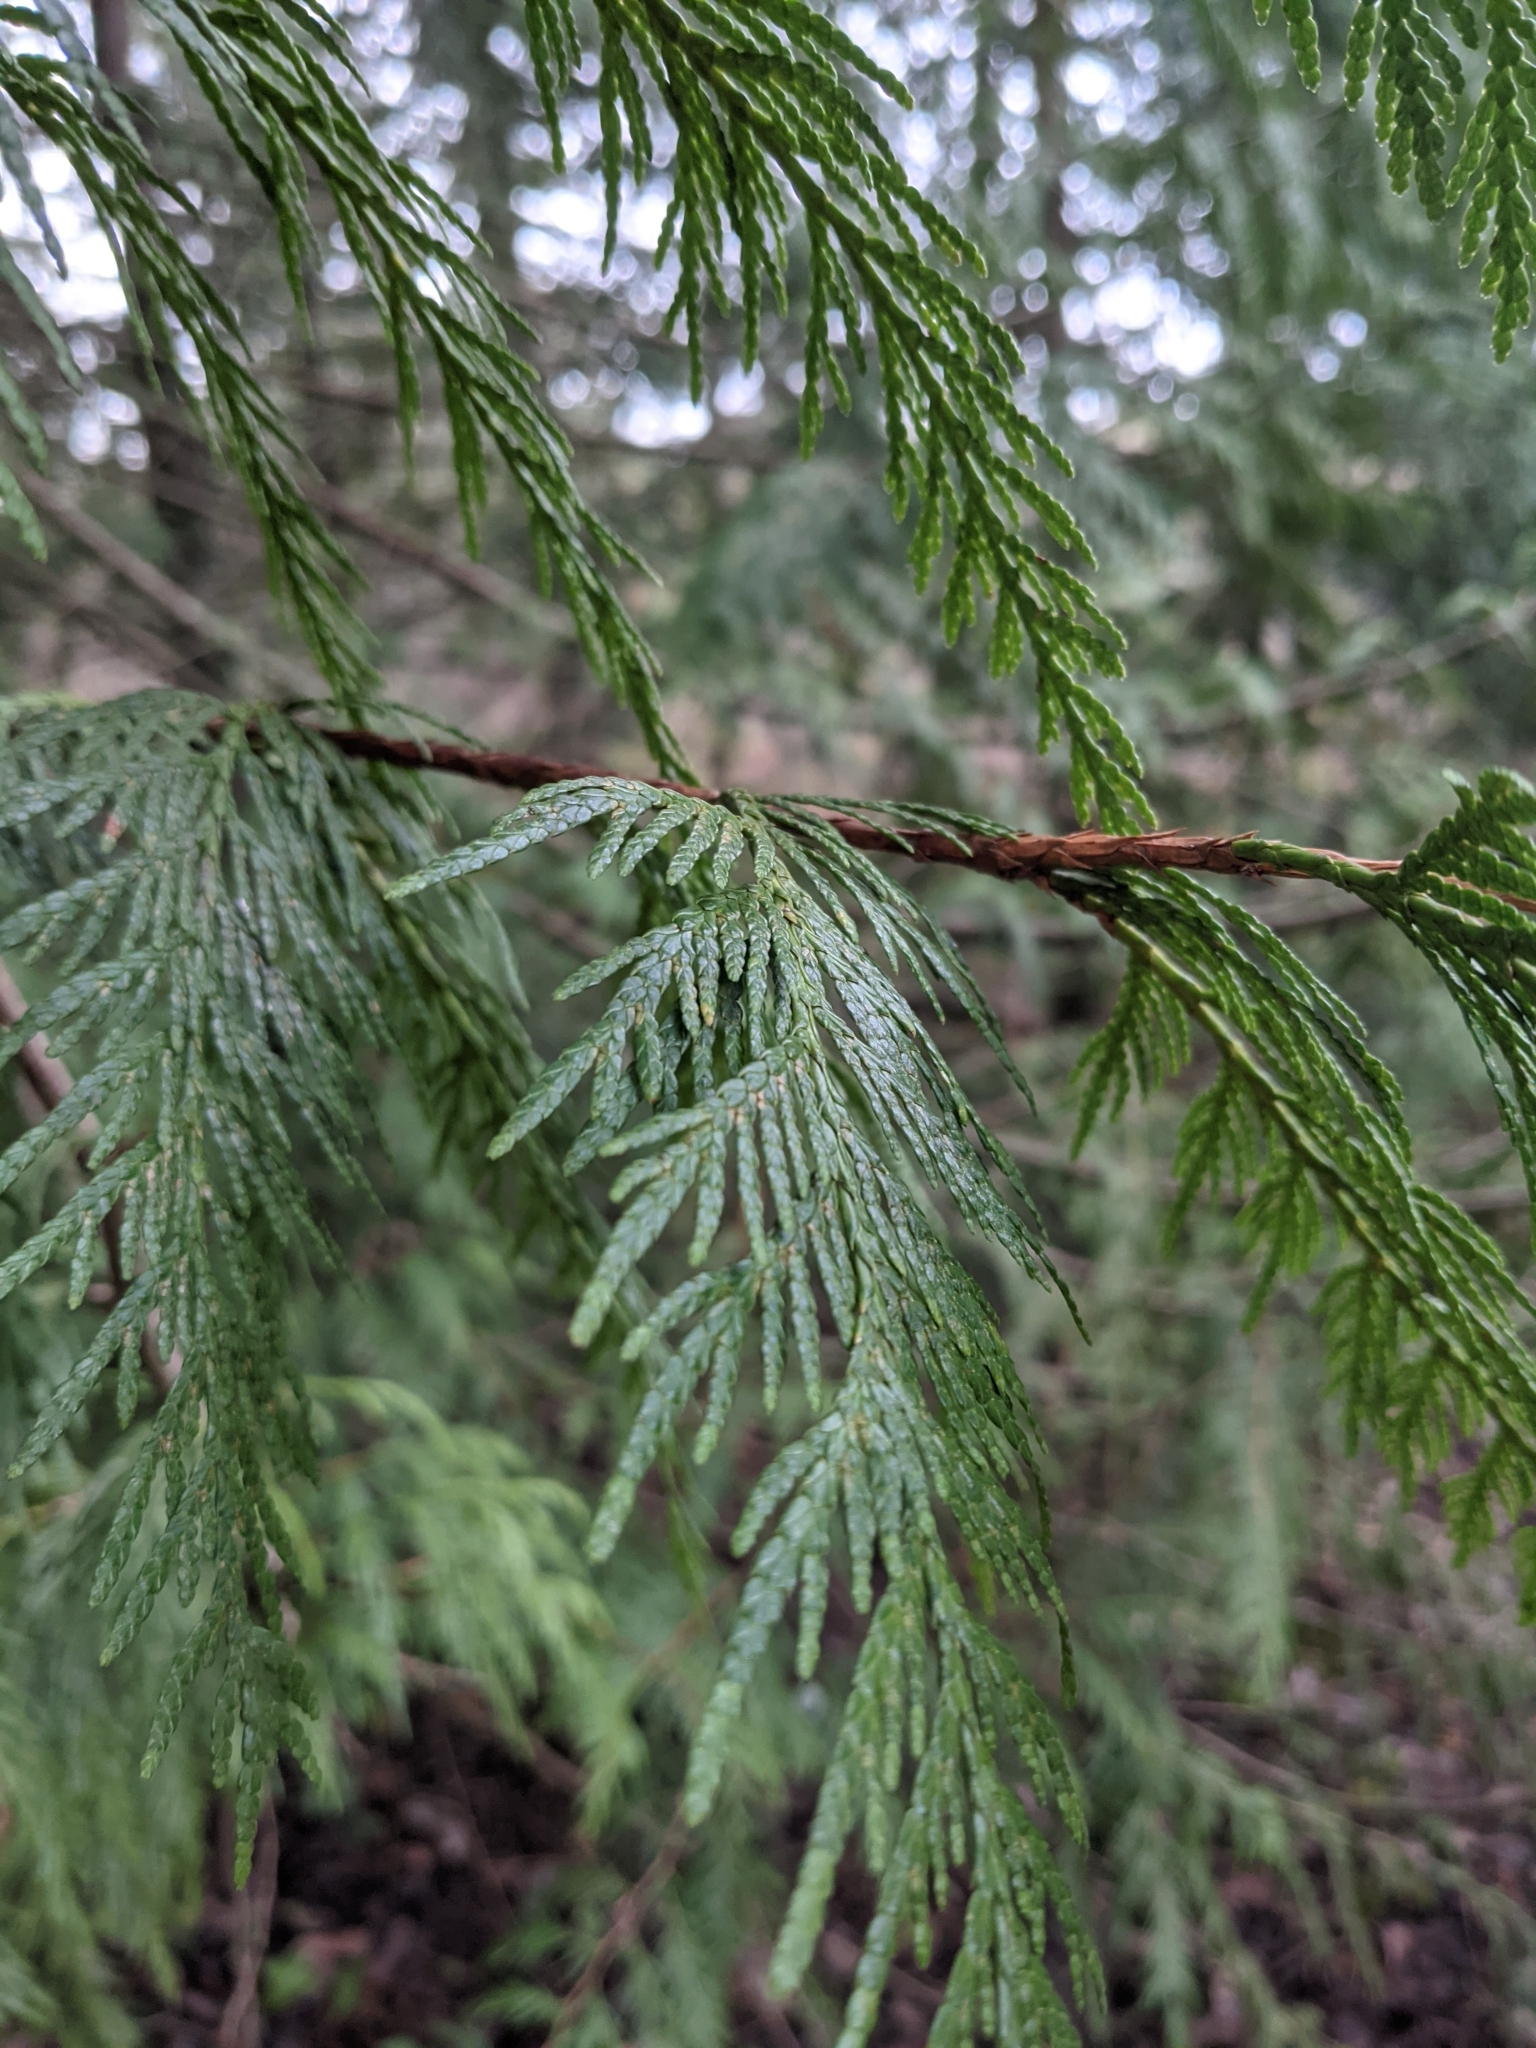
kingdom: Plantae
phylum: Tracheophyta
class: Pinopsida
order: Pinales
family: Cupressaceae
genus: Thuja
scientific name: Thuja plicata
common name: Western red-cedar
